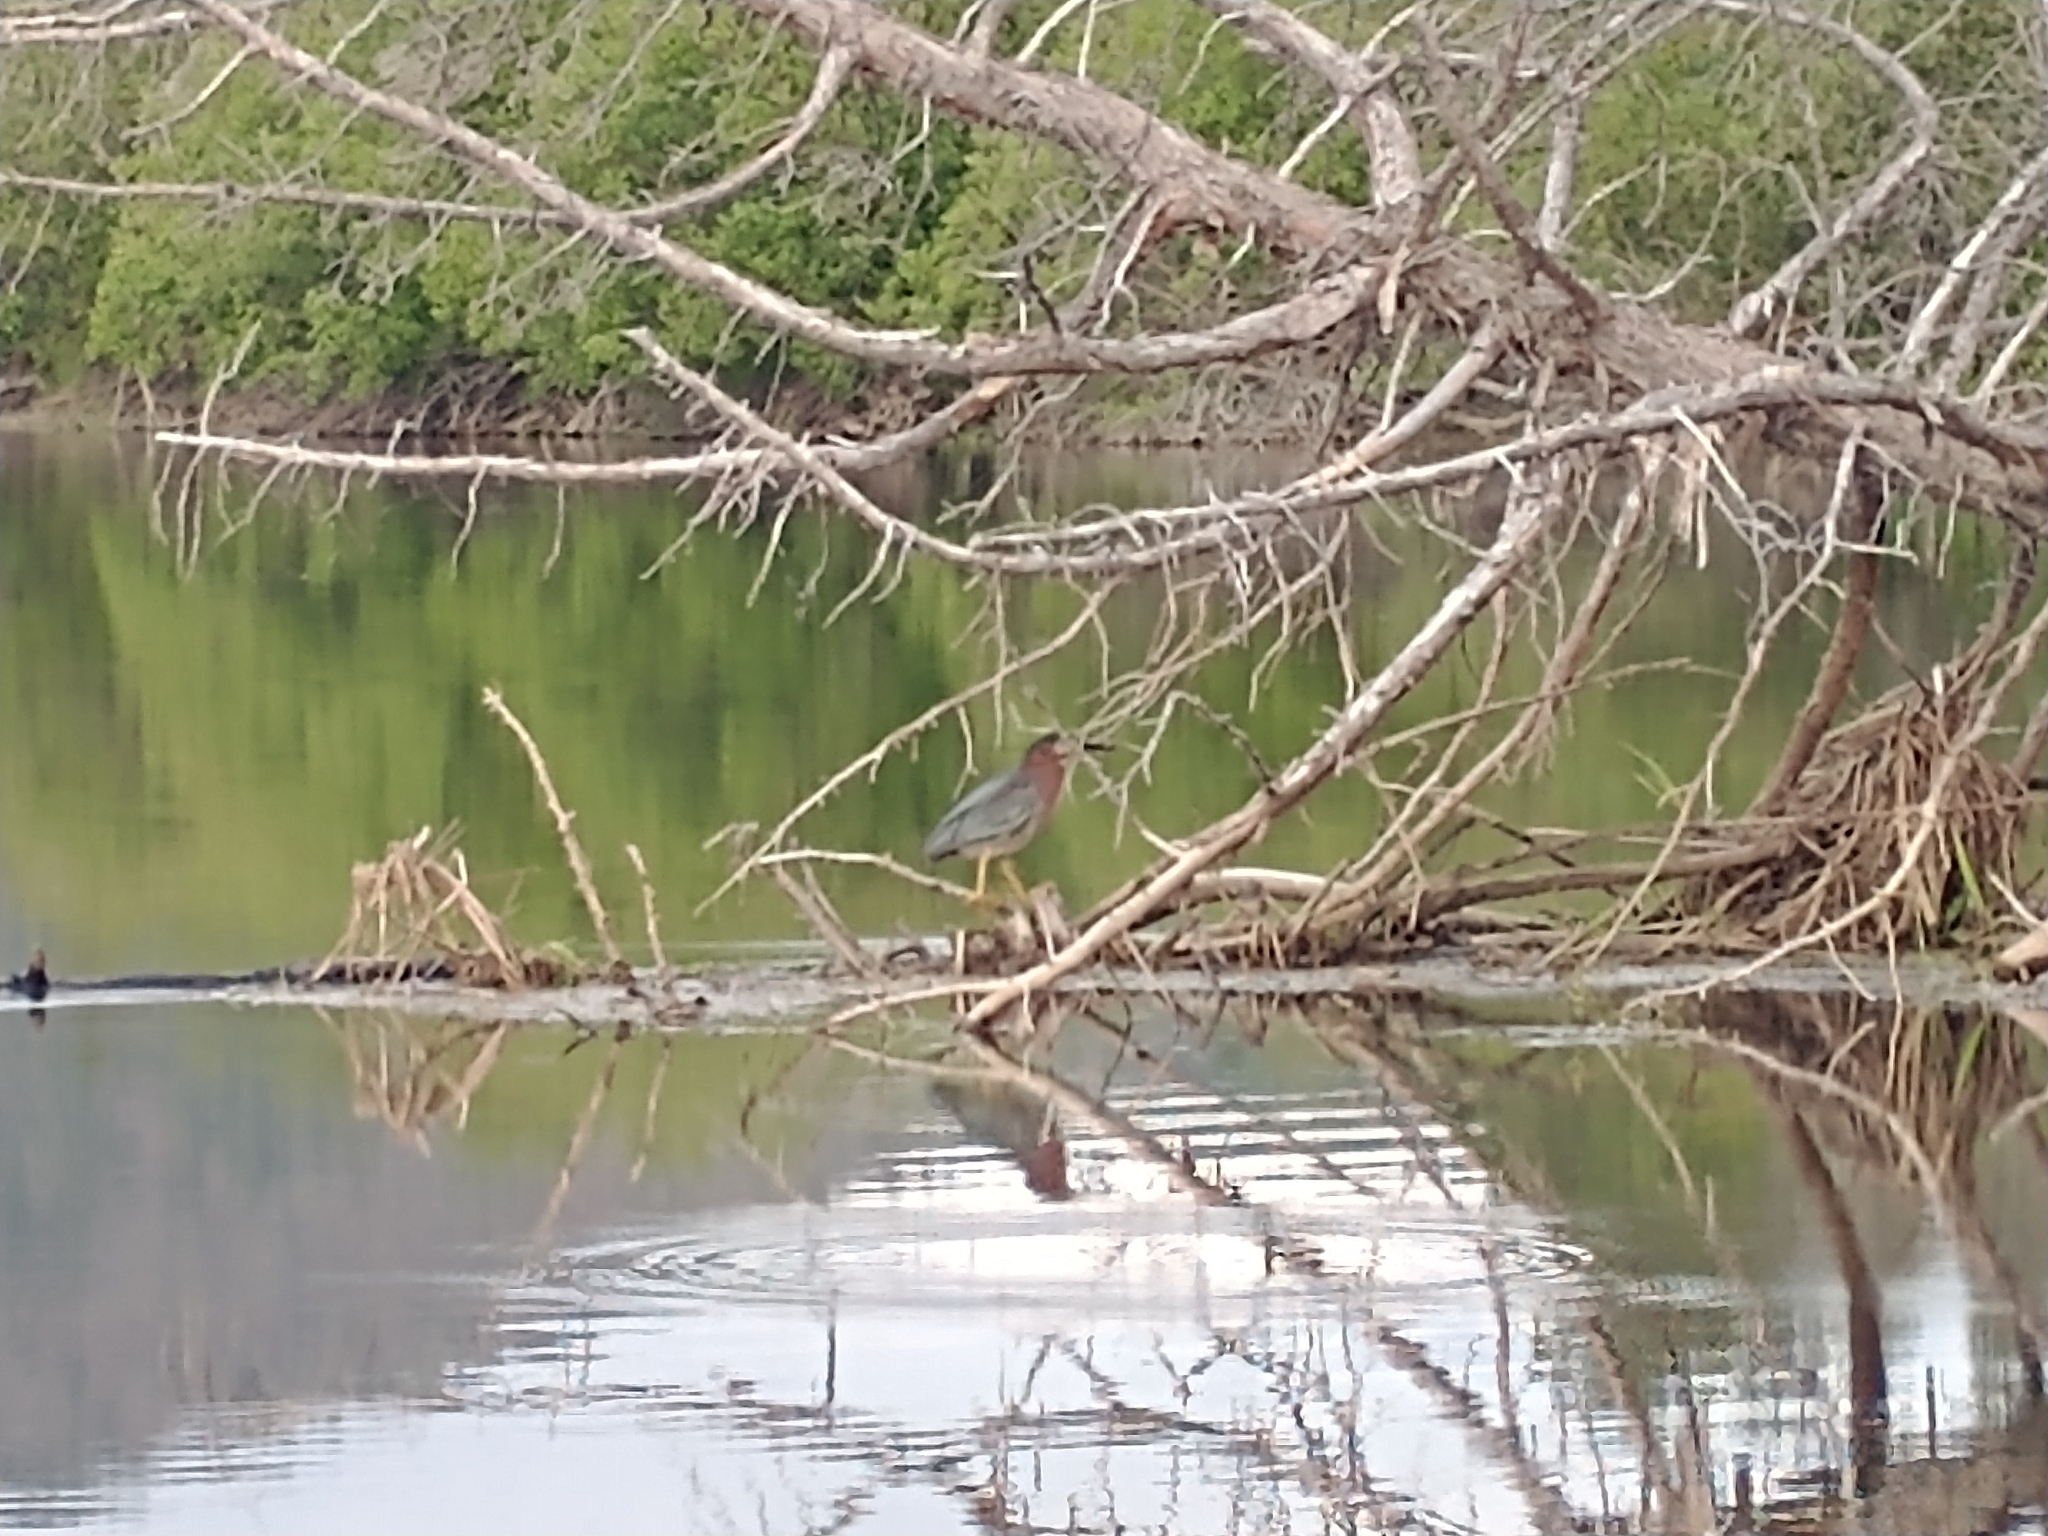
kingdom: Animalia
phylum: Chordata
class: Aves
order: Pelecaniformes
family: Ardeidae
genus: Butorides
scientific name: Butorides virescens
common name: Green heron
